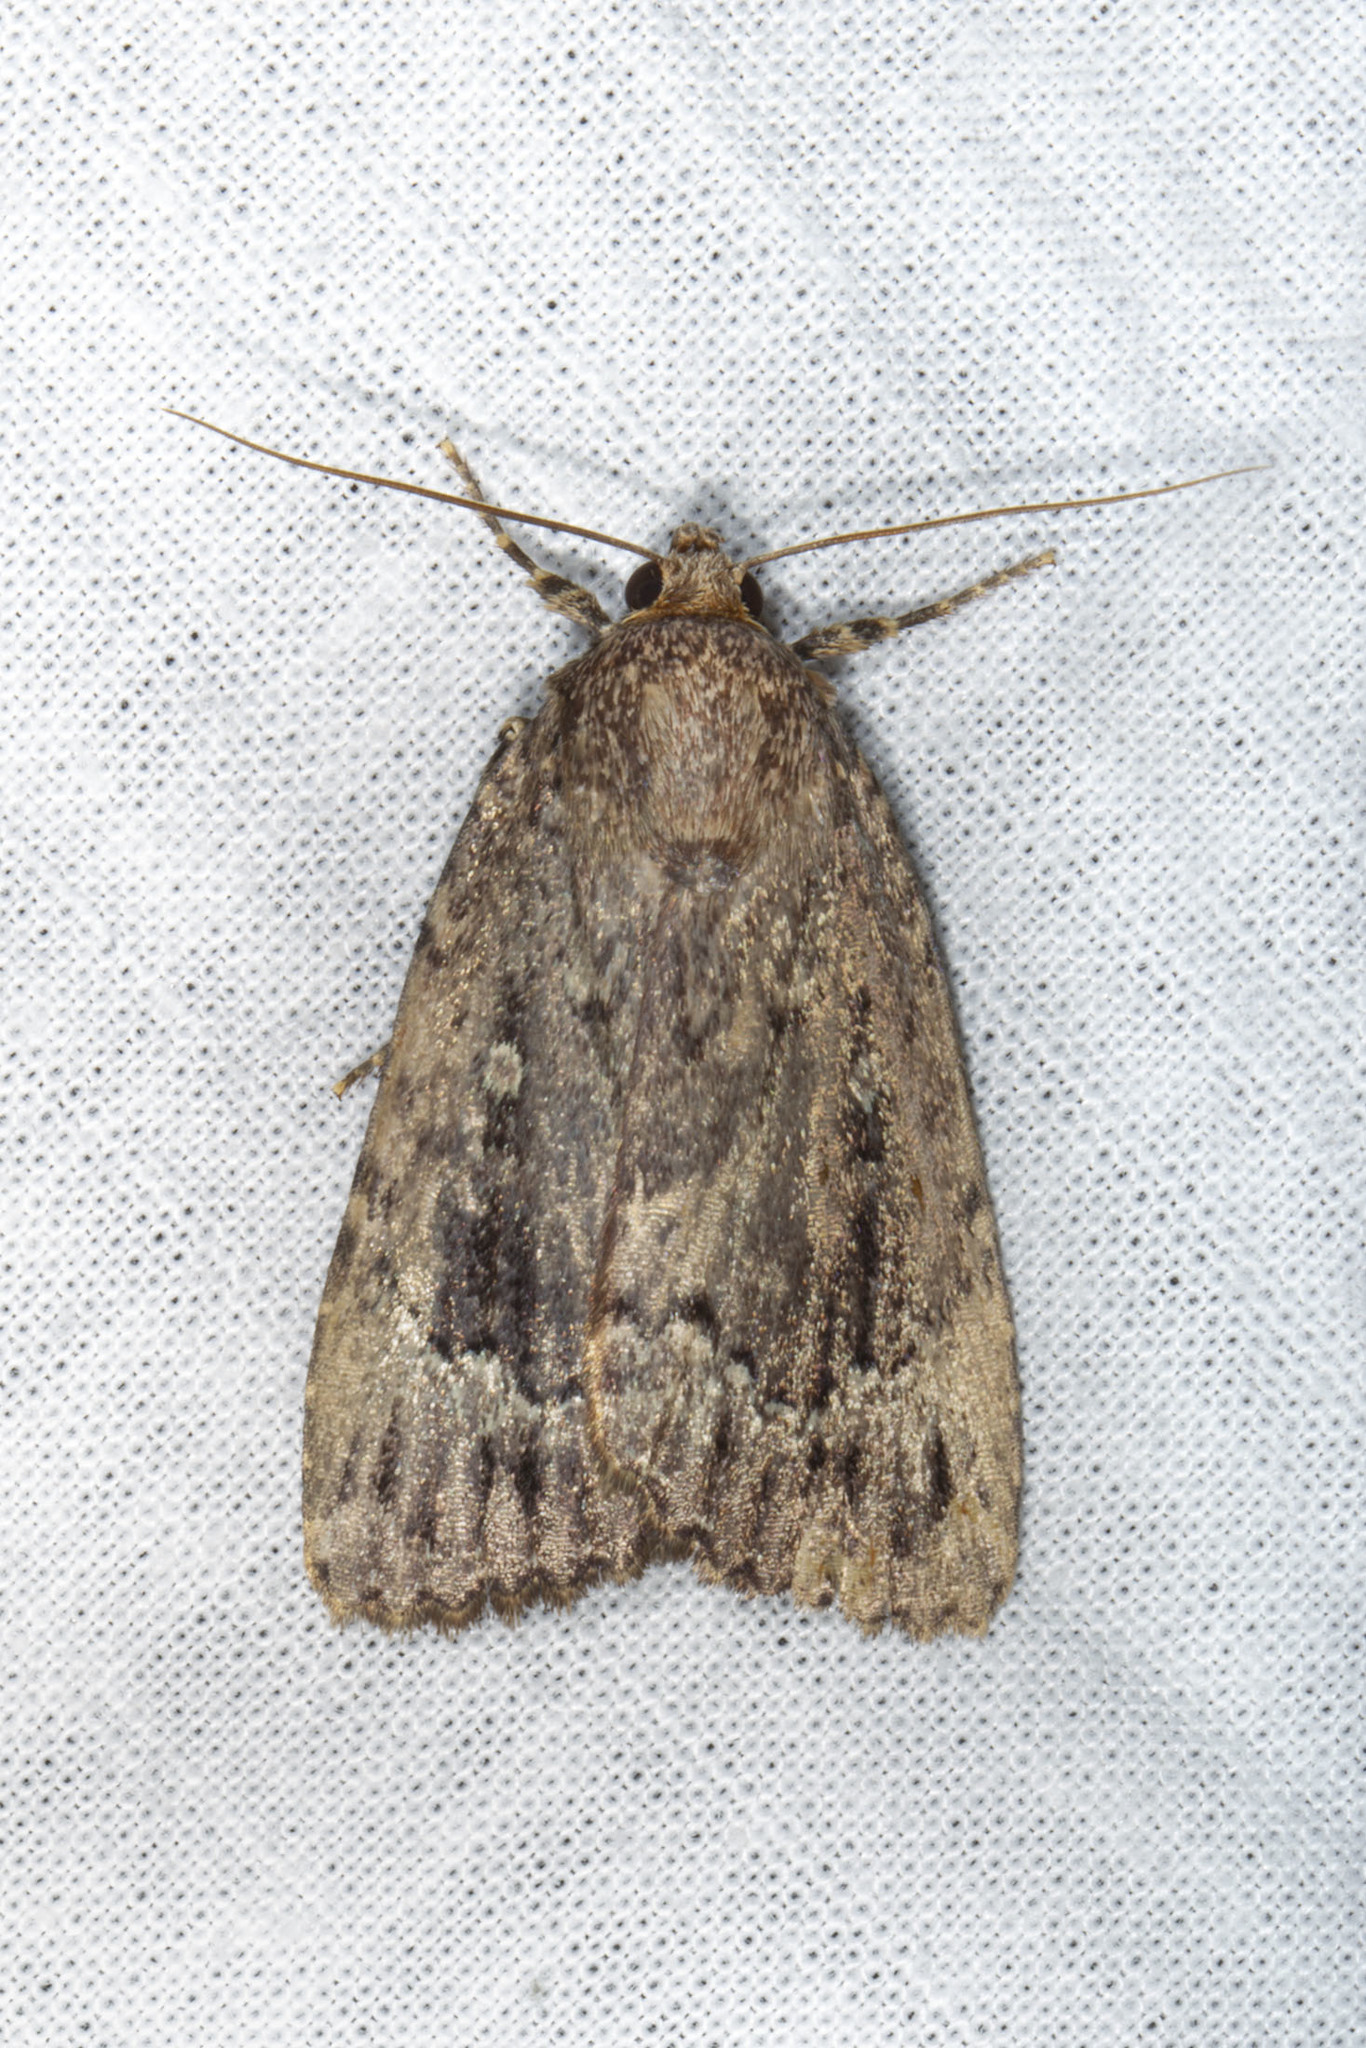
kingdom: Animalia
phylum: Arthropoda
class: Insecta
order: Lepidoptera
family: Noctuidae
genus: Amphipyra
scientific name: Amphipyra pyramidoides
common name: American copper underwing
